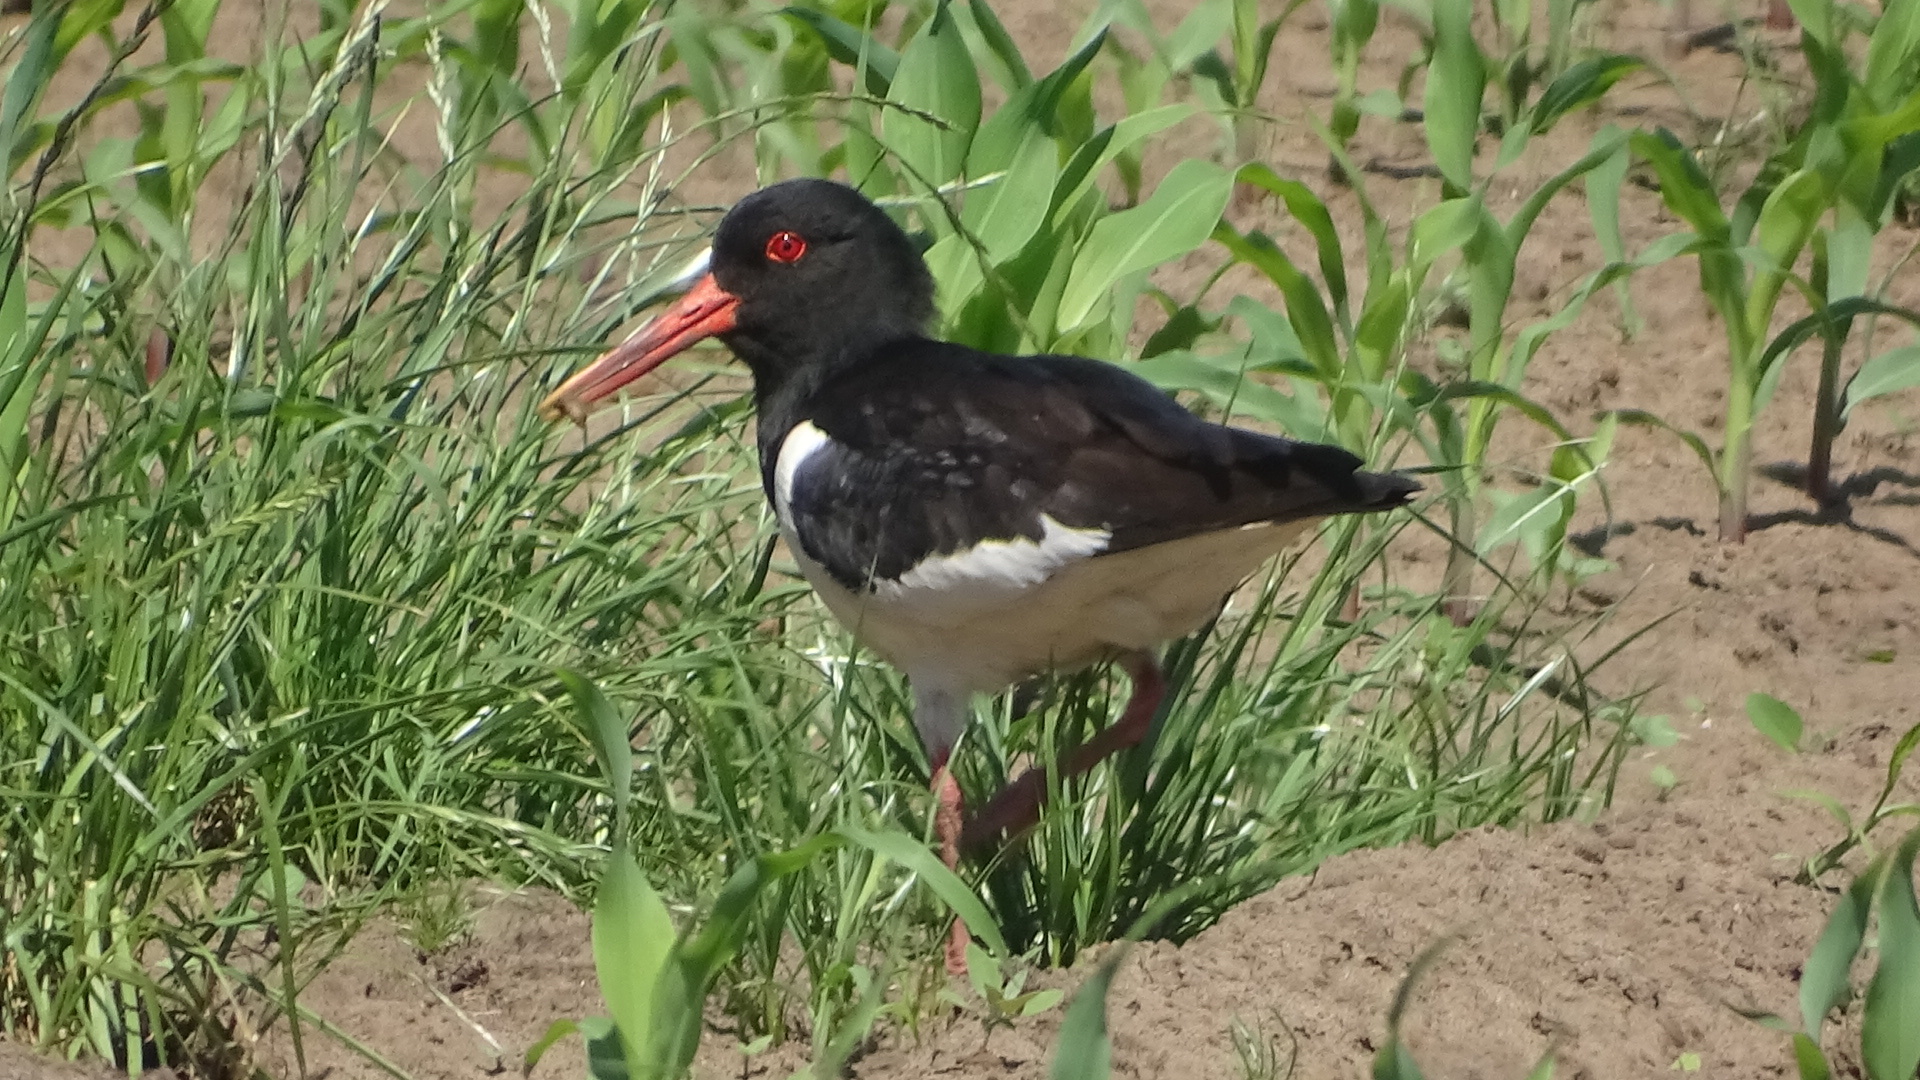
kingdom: Animalia
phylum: Chordata
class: Aves
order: Charadriiformes
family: Haematopodidae
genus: Haematopus
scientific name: Haematopus ostralegus
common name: Eurasian oystercatcher
